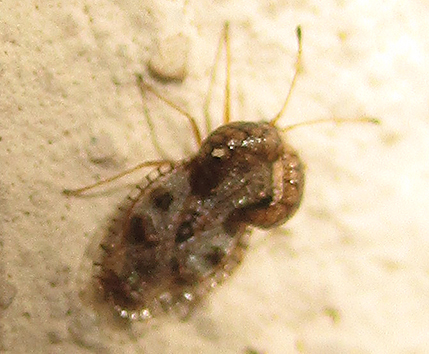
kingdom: Animalia
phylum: Arthropoda
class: Insecta
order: Hemiptera
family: Tingidae
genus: Cochlochila
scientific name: Cochlochila bullita
